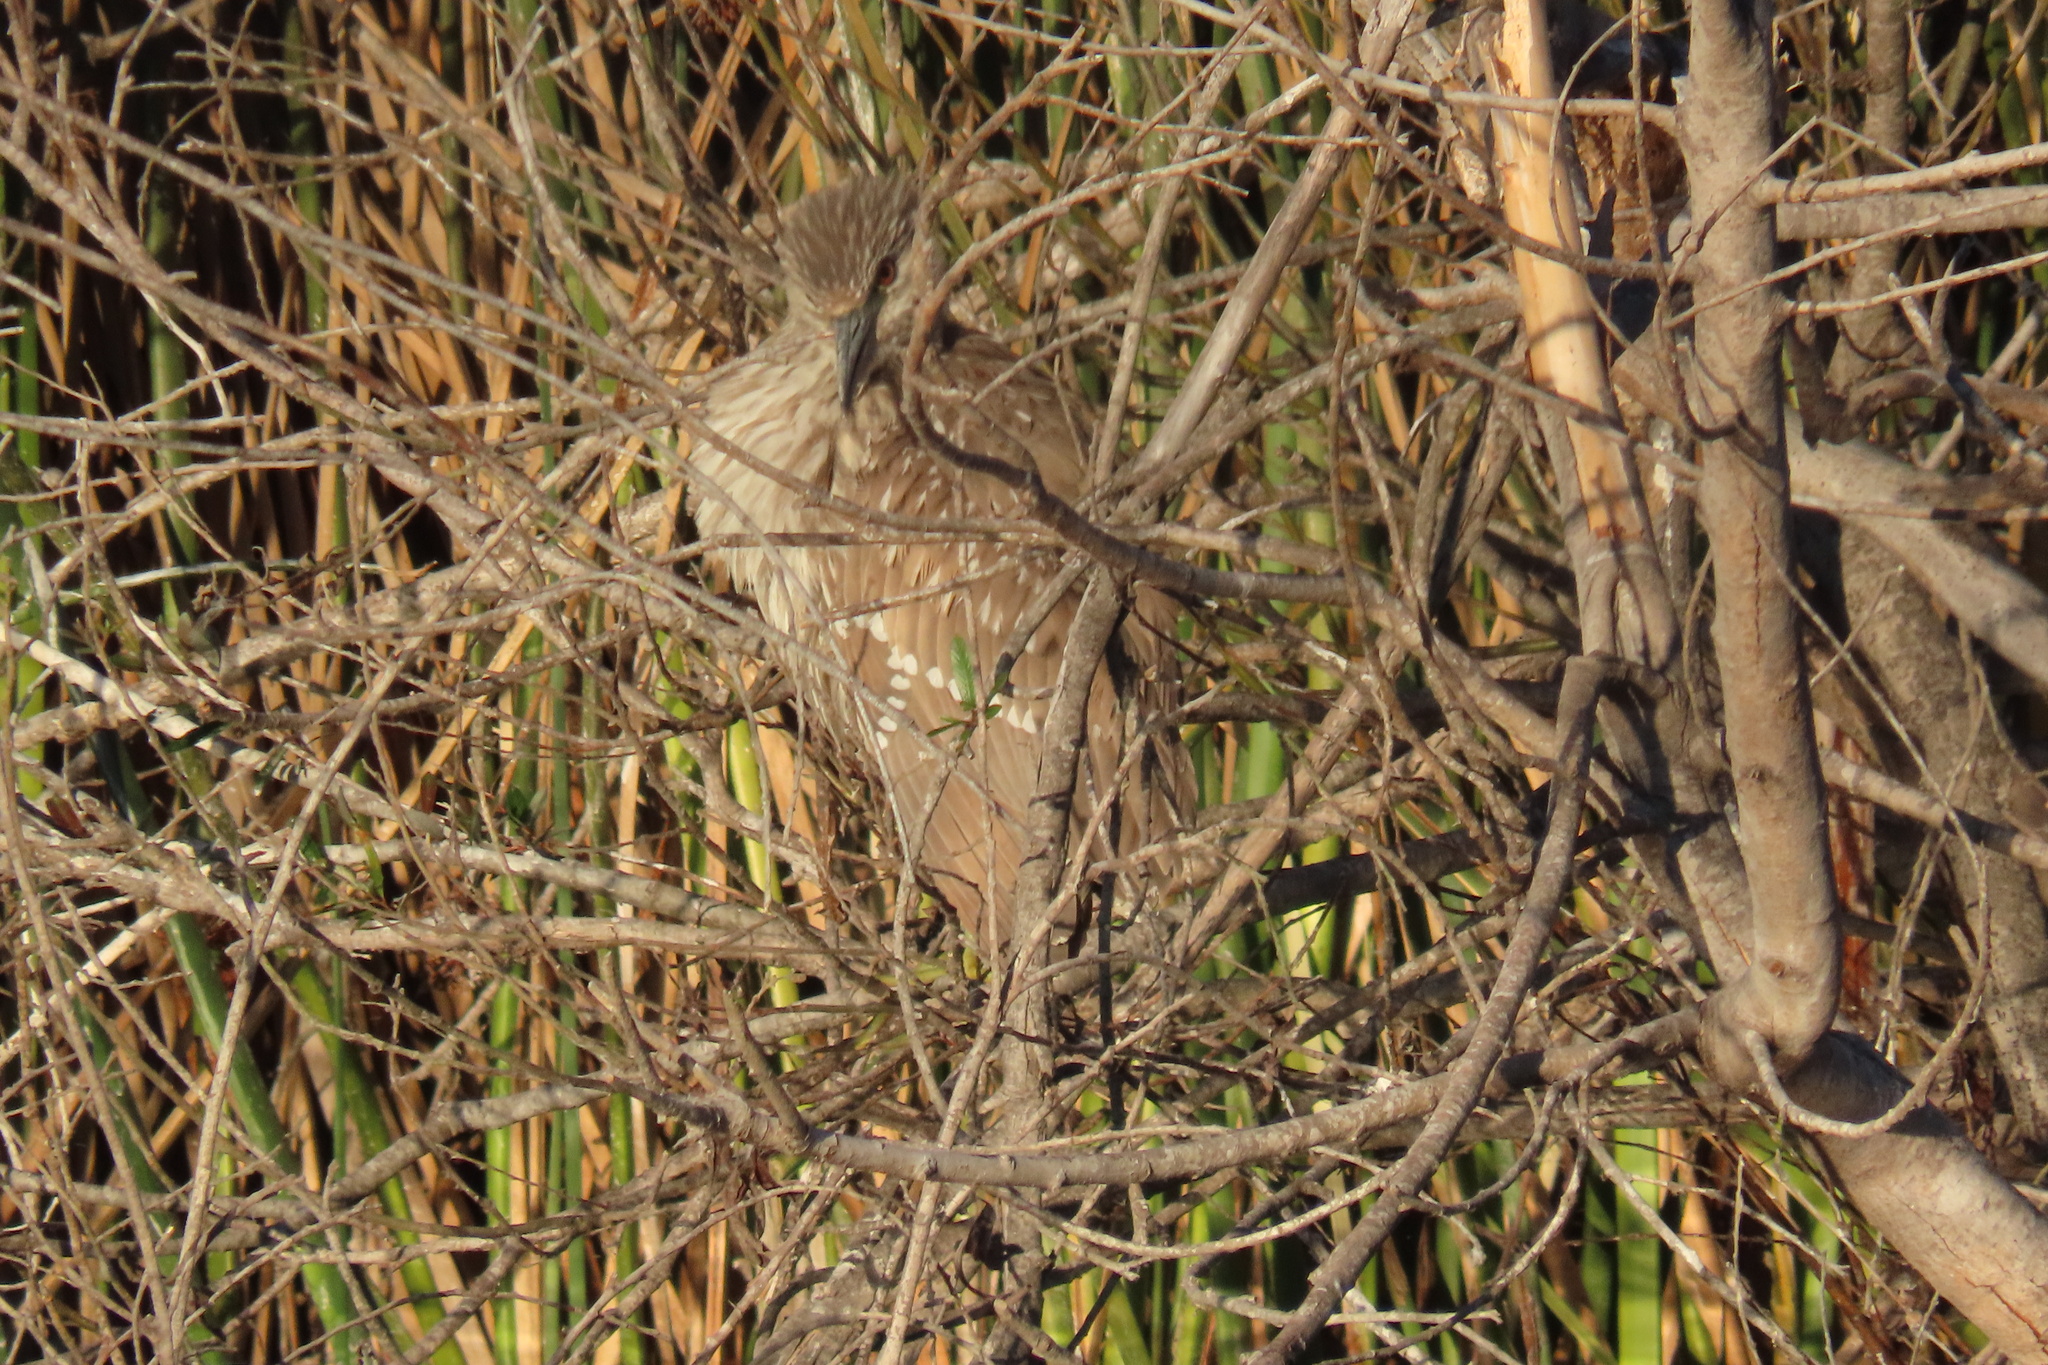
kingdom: Animalia
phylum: Chordata
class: Aves
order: Pelecaniformes
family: Ardeidae
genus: Nycticorax
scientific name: Nycticorax nycticorax
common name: Black-crowned night heron
